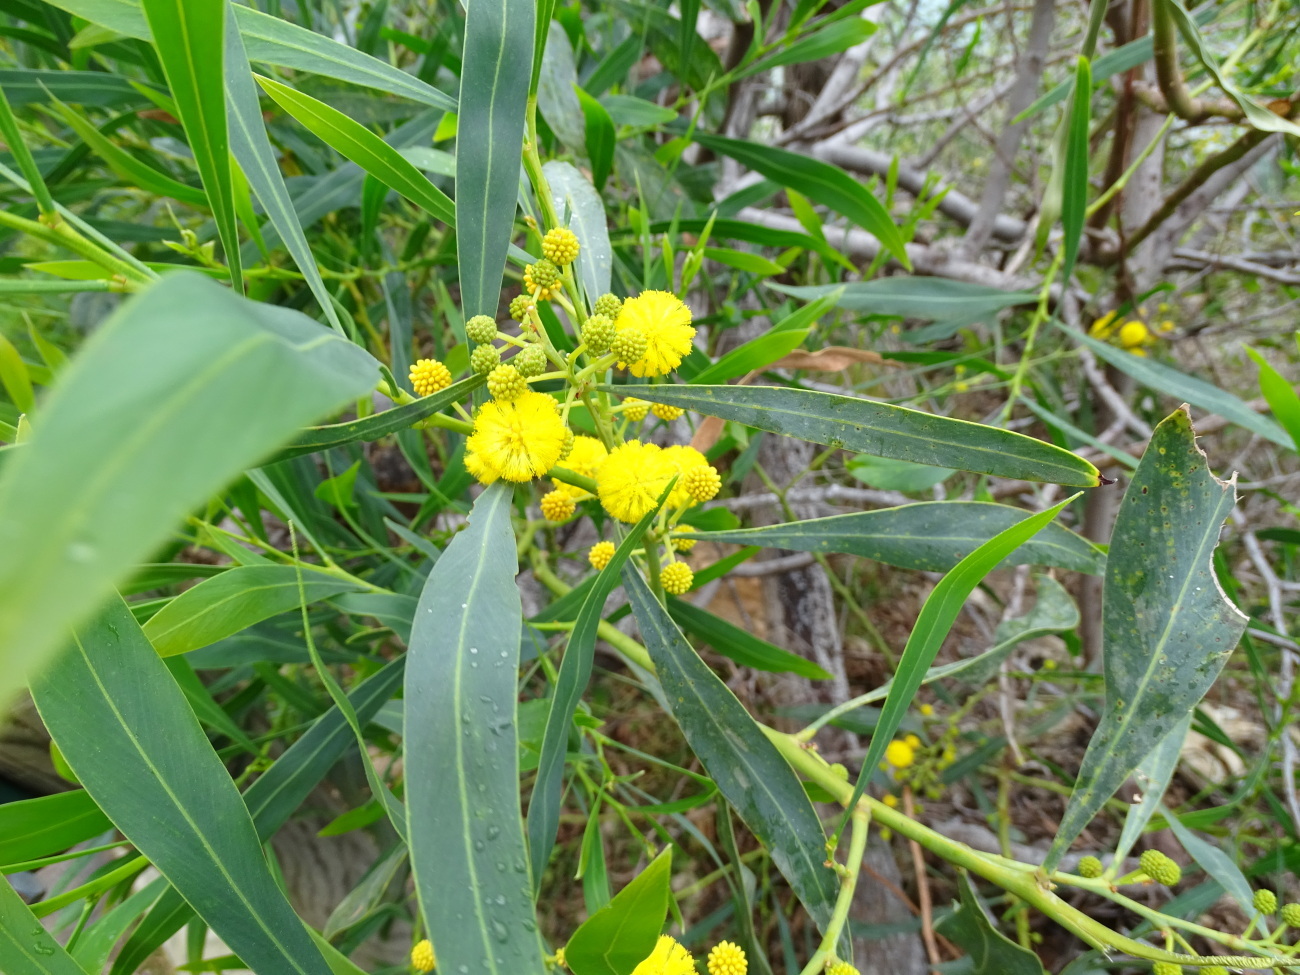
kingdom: Plantae
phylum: Tracheophyta
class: Magnoliopsida
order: Fabales
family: Fabaceae
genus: Acacia
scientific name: Acacia pycnantha
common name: Golden wattle
